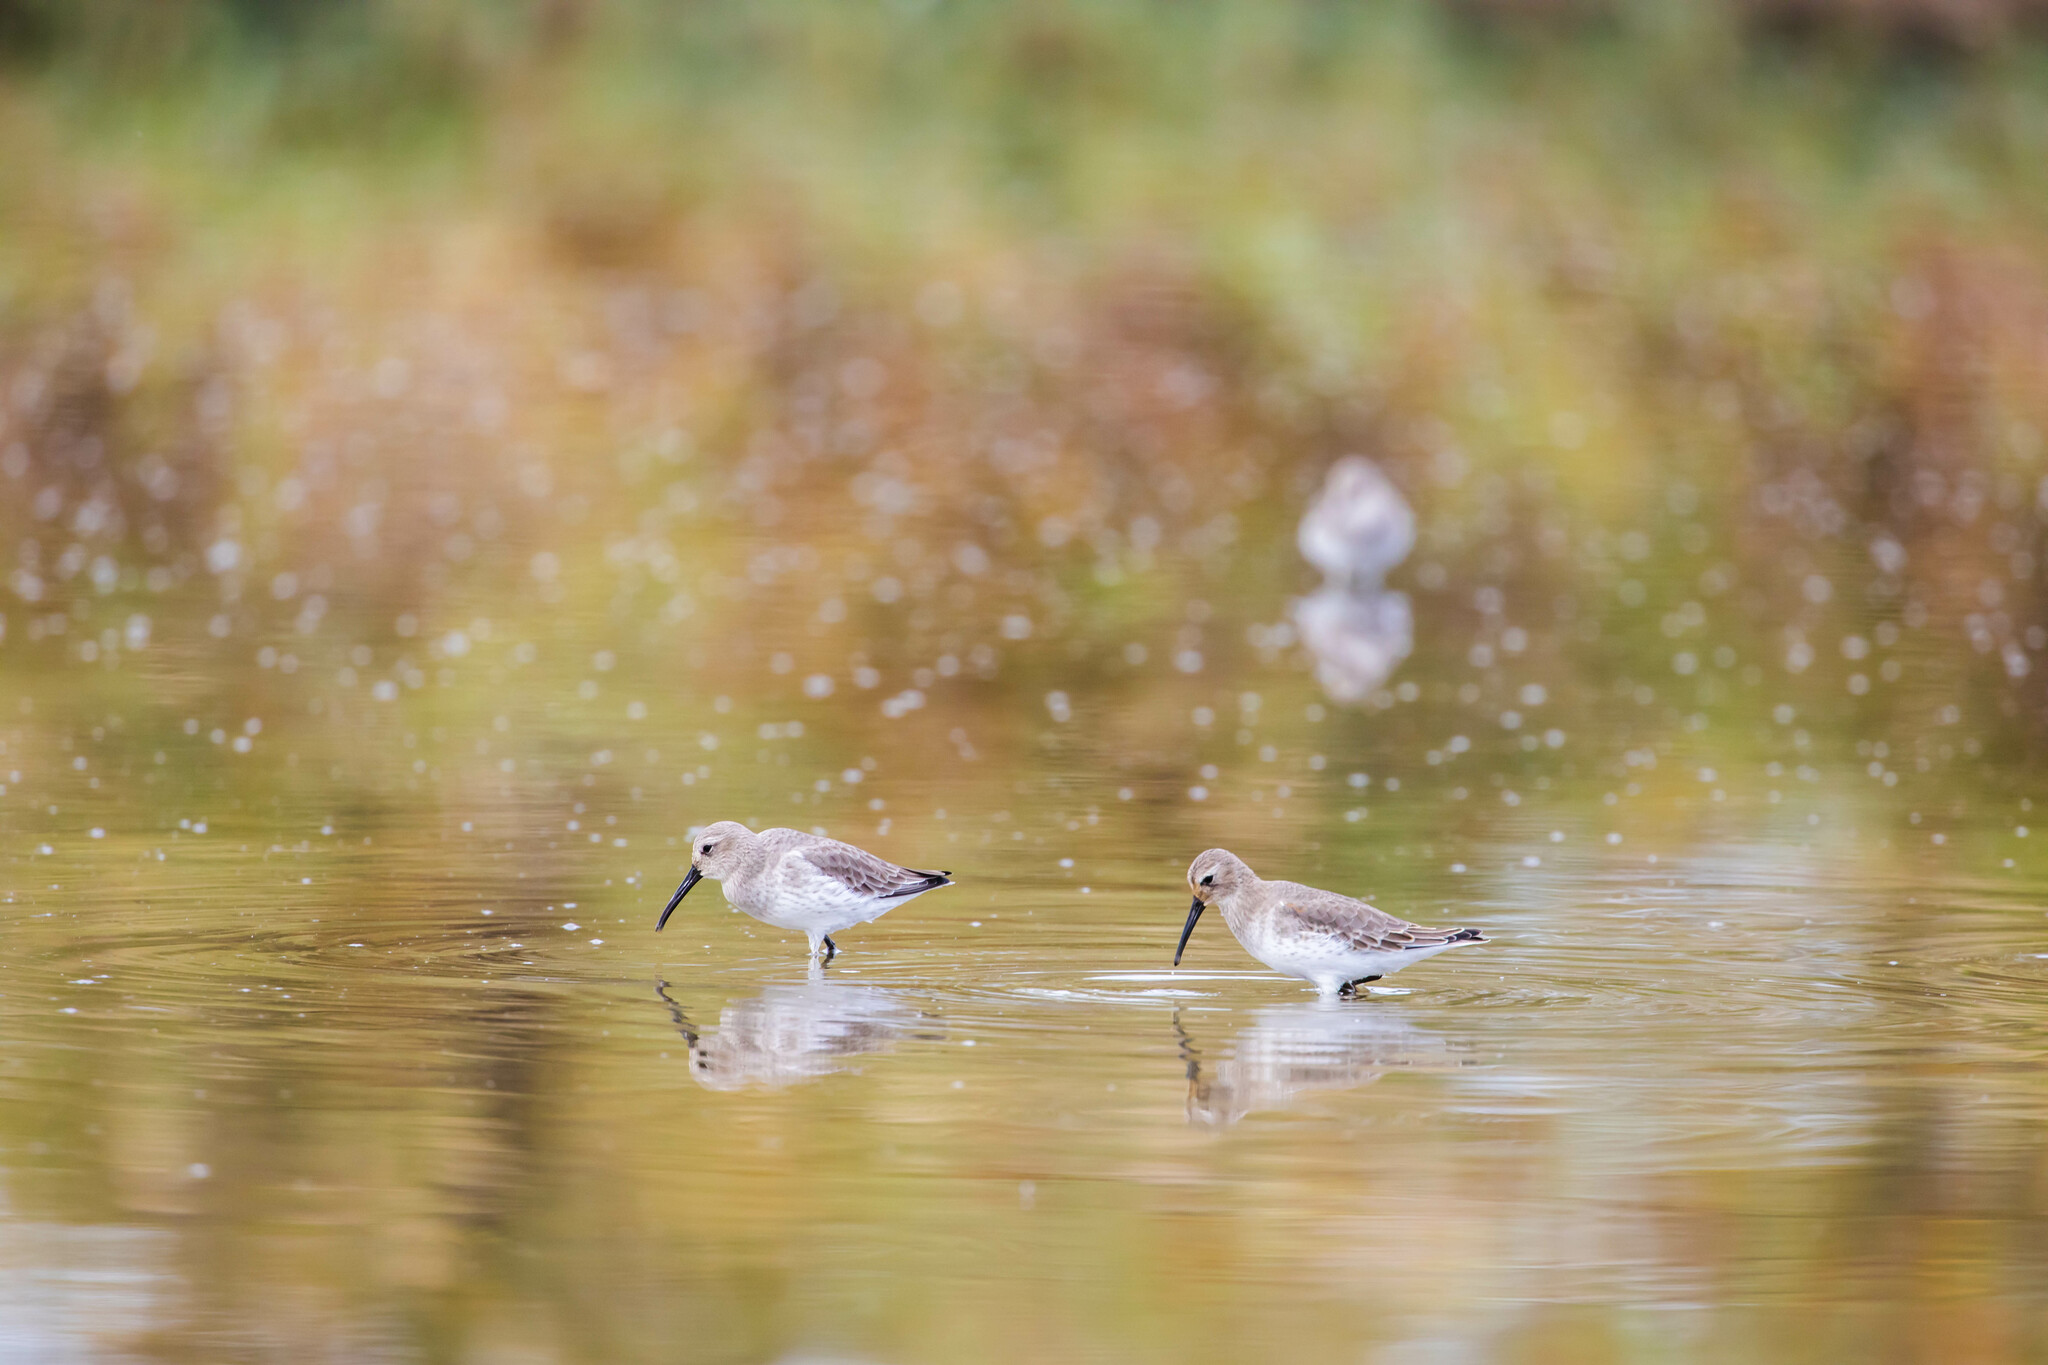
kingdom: Animalia
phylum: Chordata
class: Aves
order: Charadriiformes
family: Scolopacidae
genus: Calidris
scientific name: Calidris alpina
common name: Dunlin
